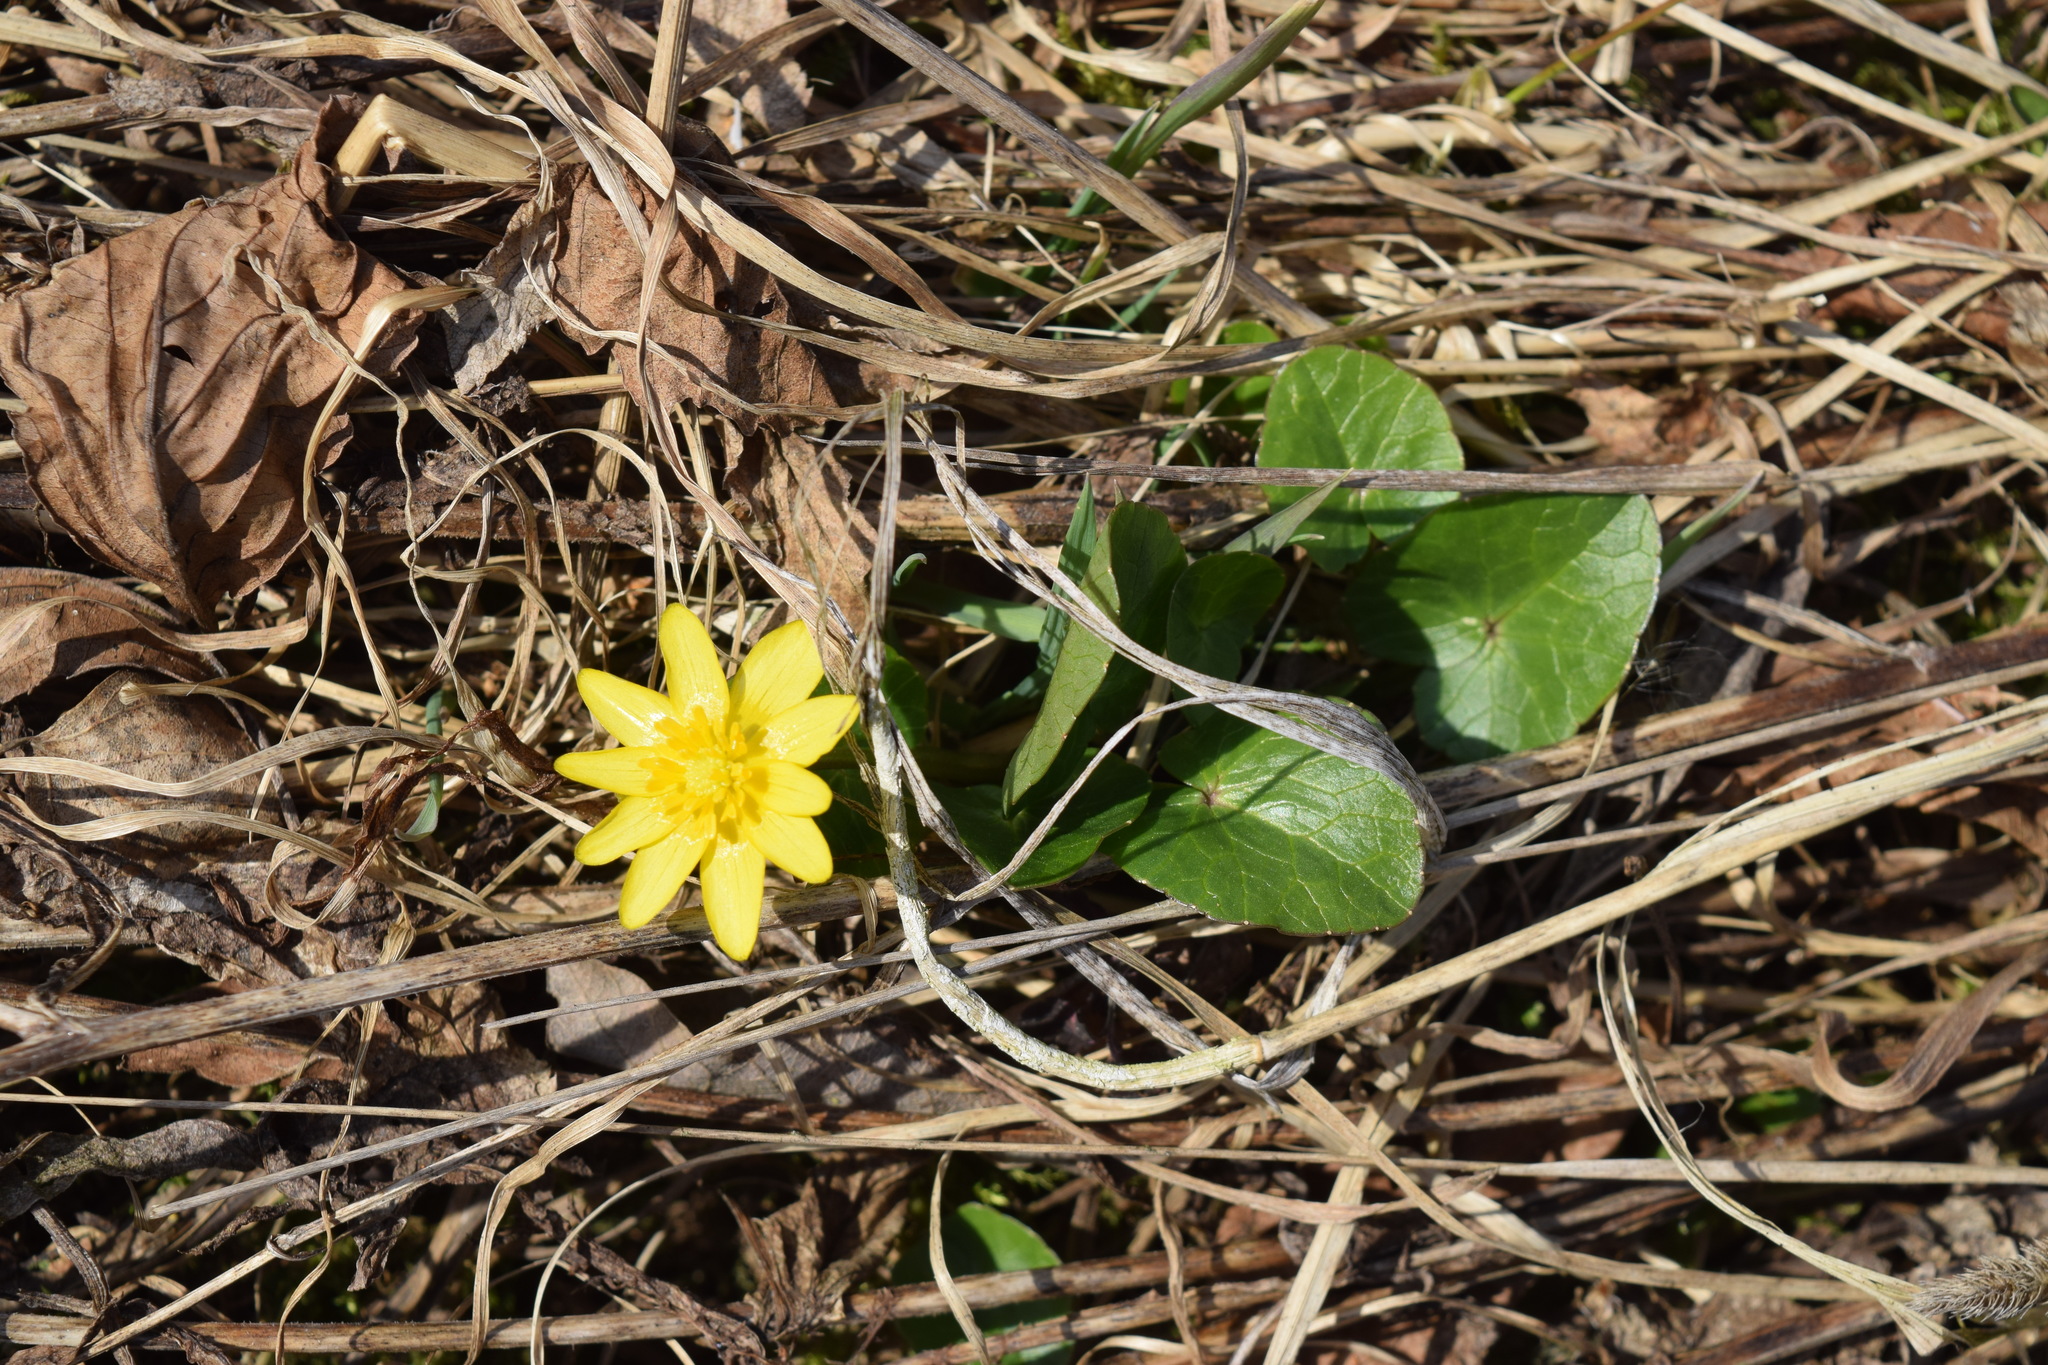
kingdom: Plantae
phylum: Tracheophyta
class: Magnoliopsida
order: Ranunculales
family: Ranunculaceae
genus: Ficaria
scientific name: Ficaria verna
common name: Lesser celandine
